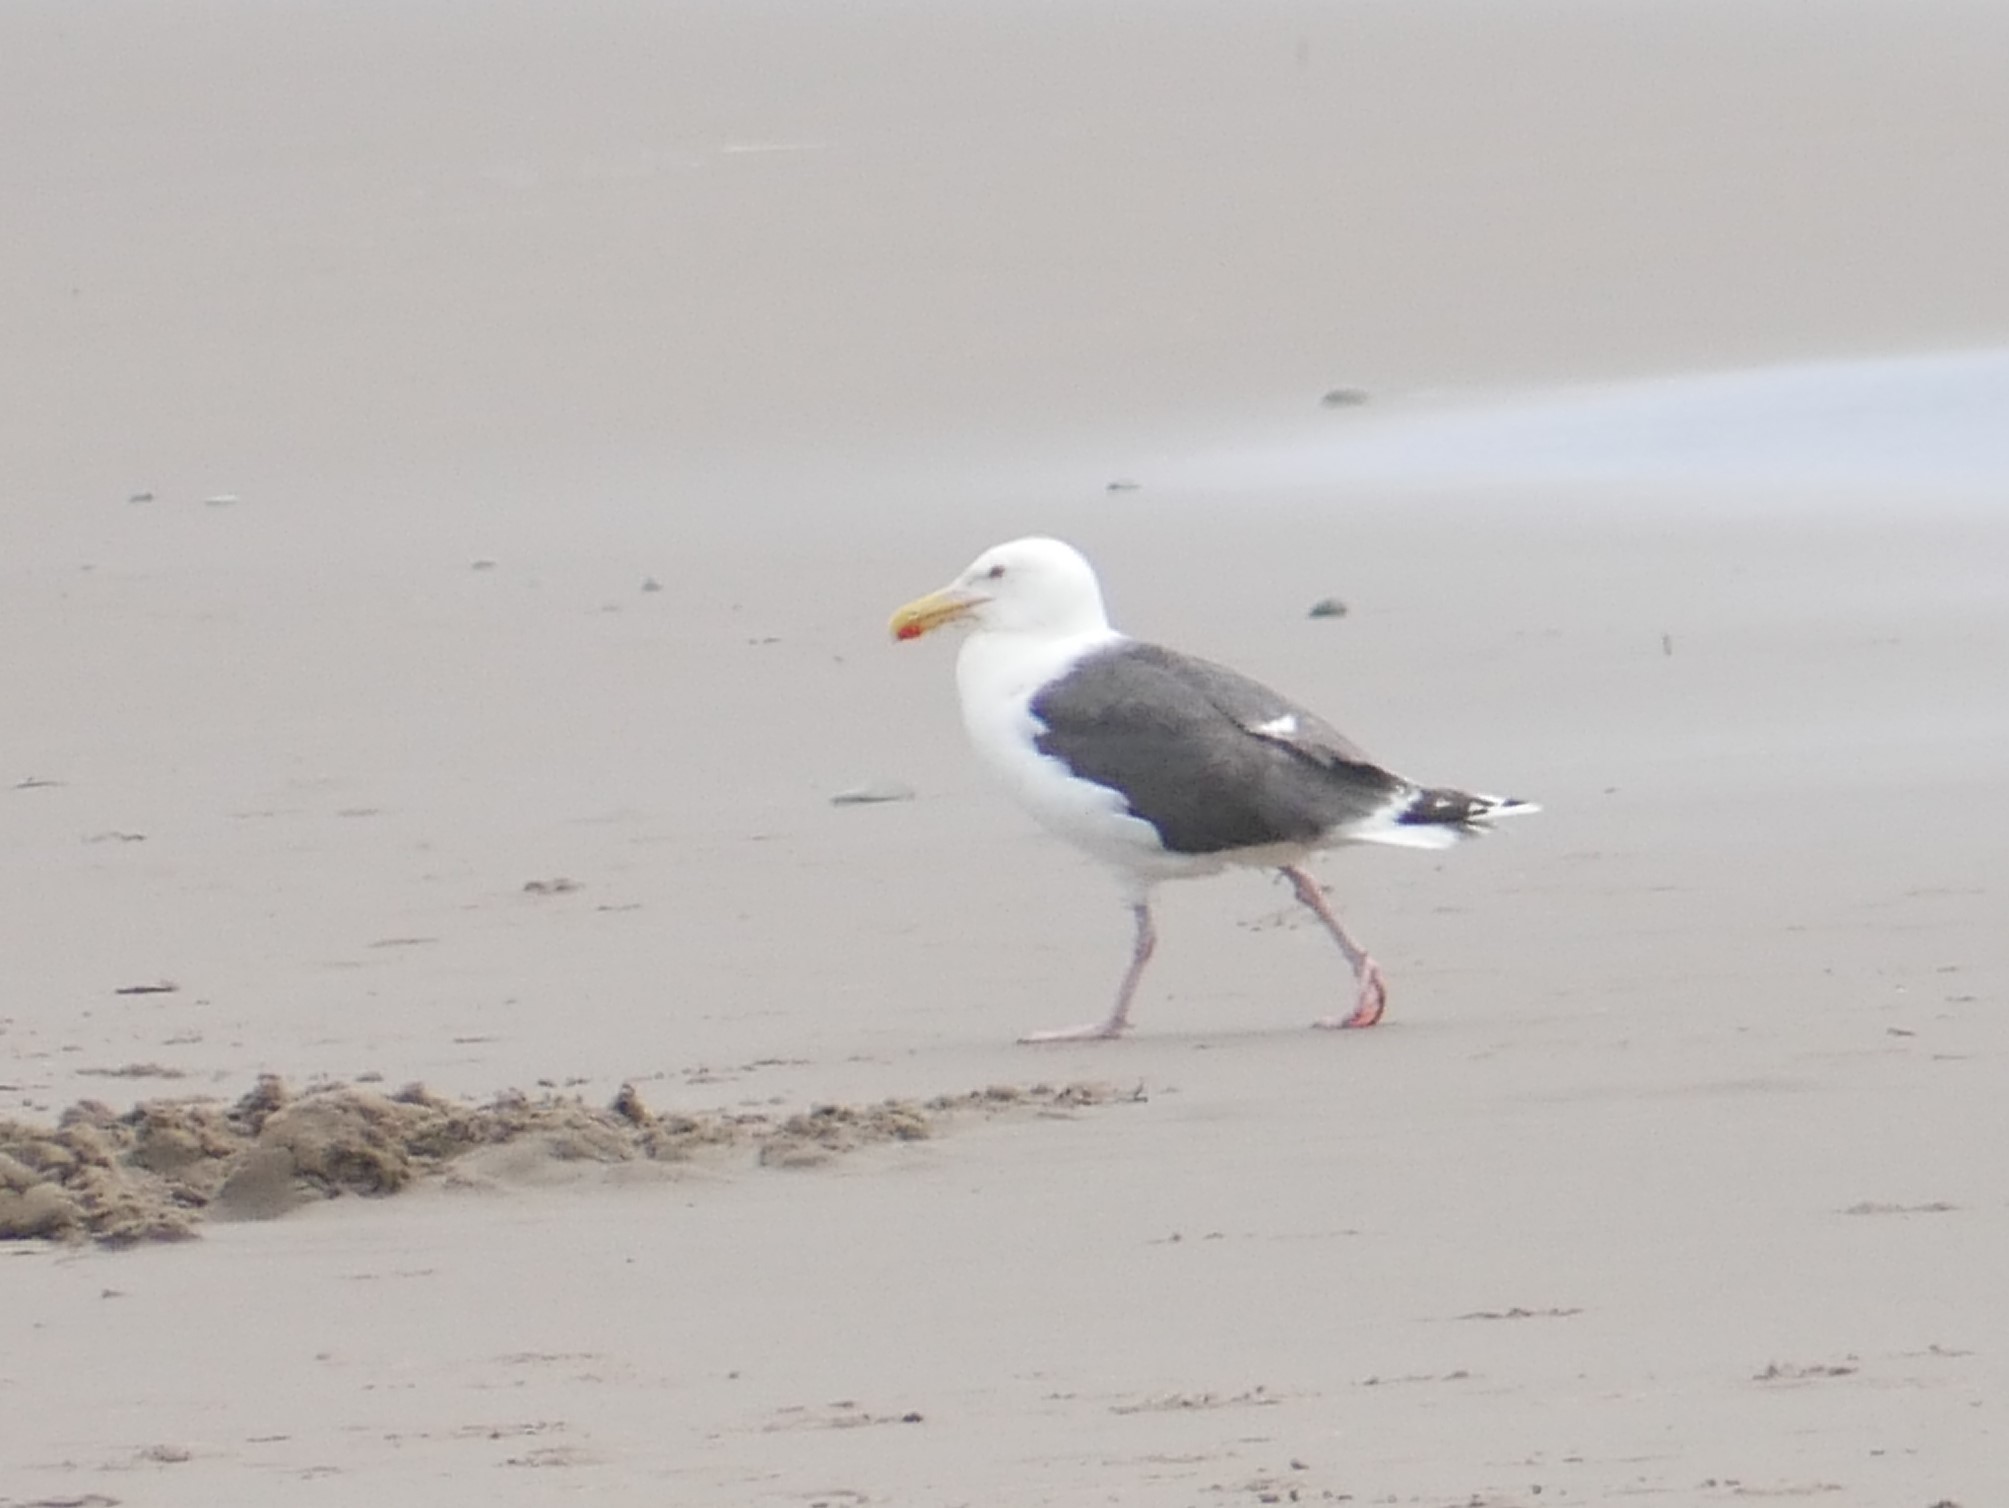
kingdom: Animalia
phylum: Chordata
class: Aves
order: Charadriiformes
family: Laridae
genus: Larus
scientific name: Larus marinus
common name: Great black-backed gull
